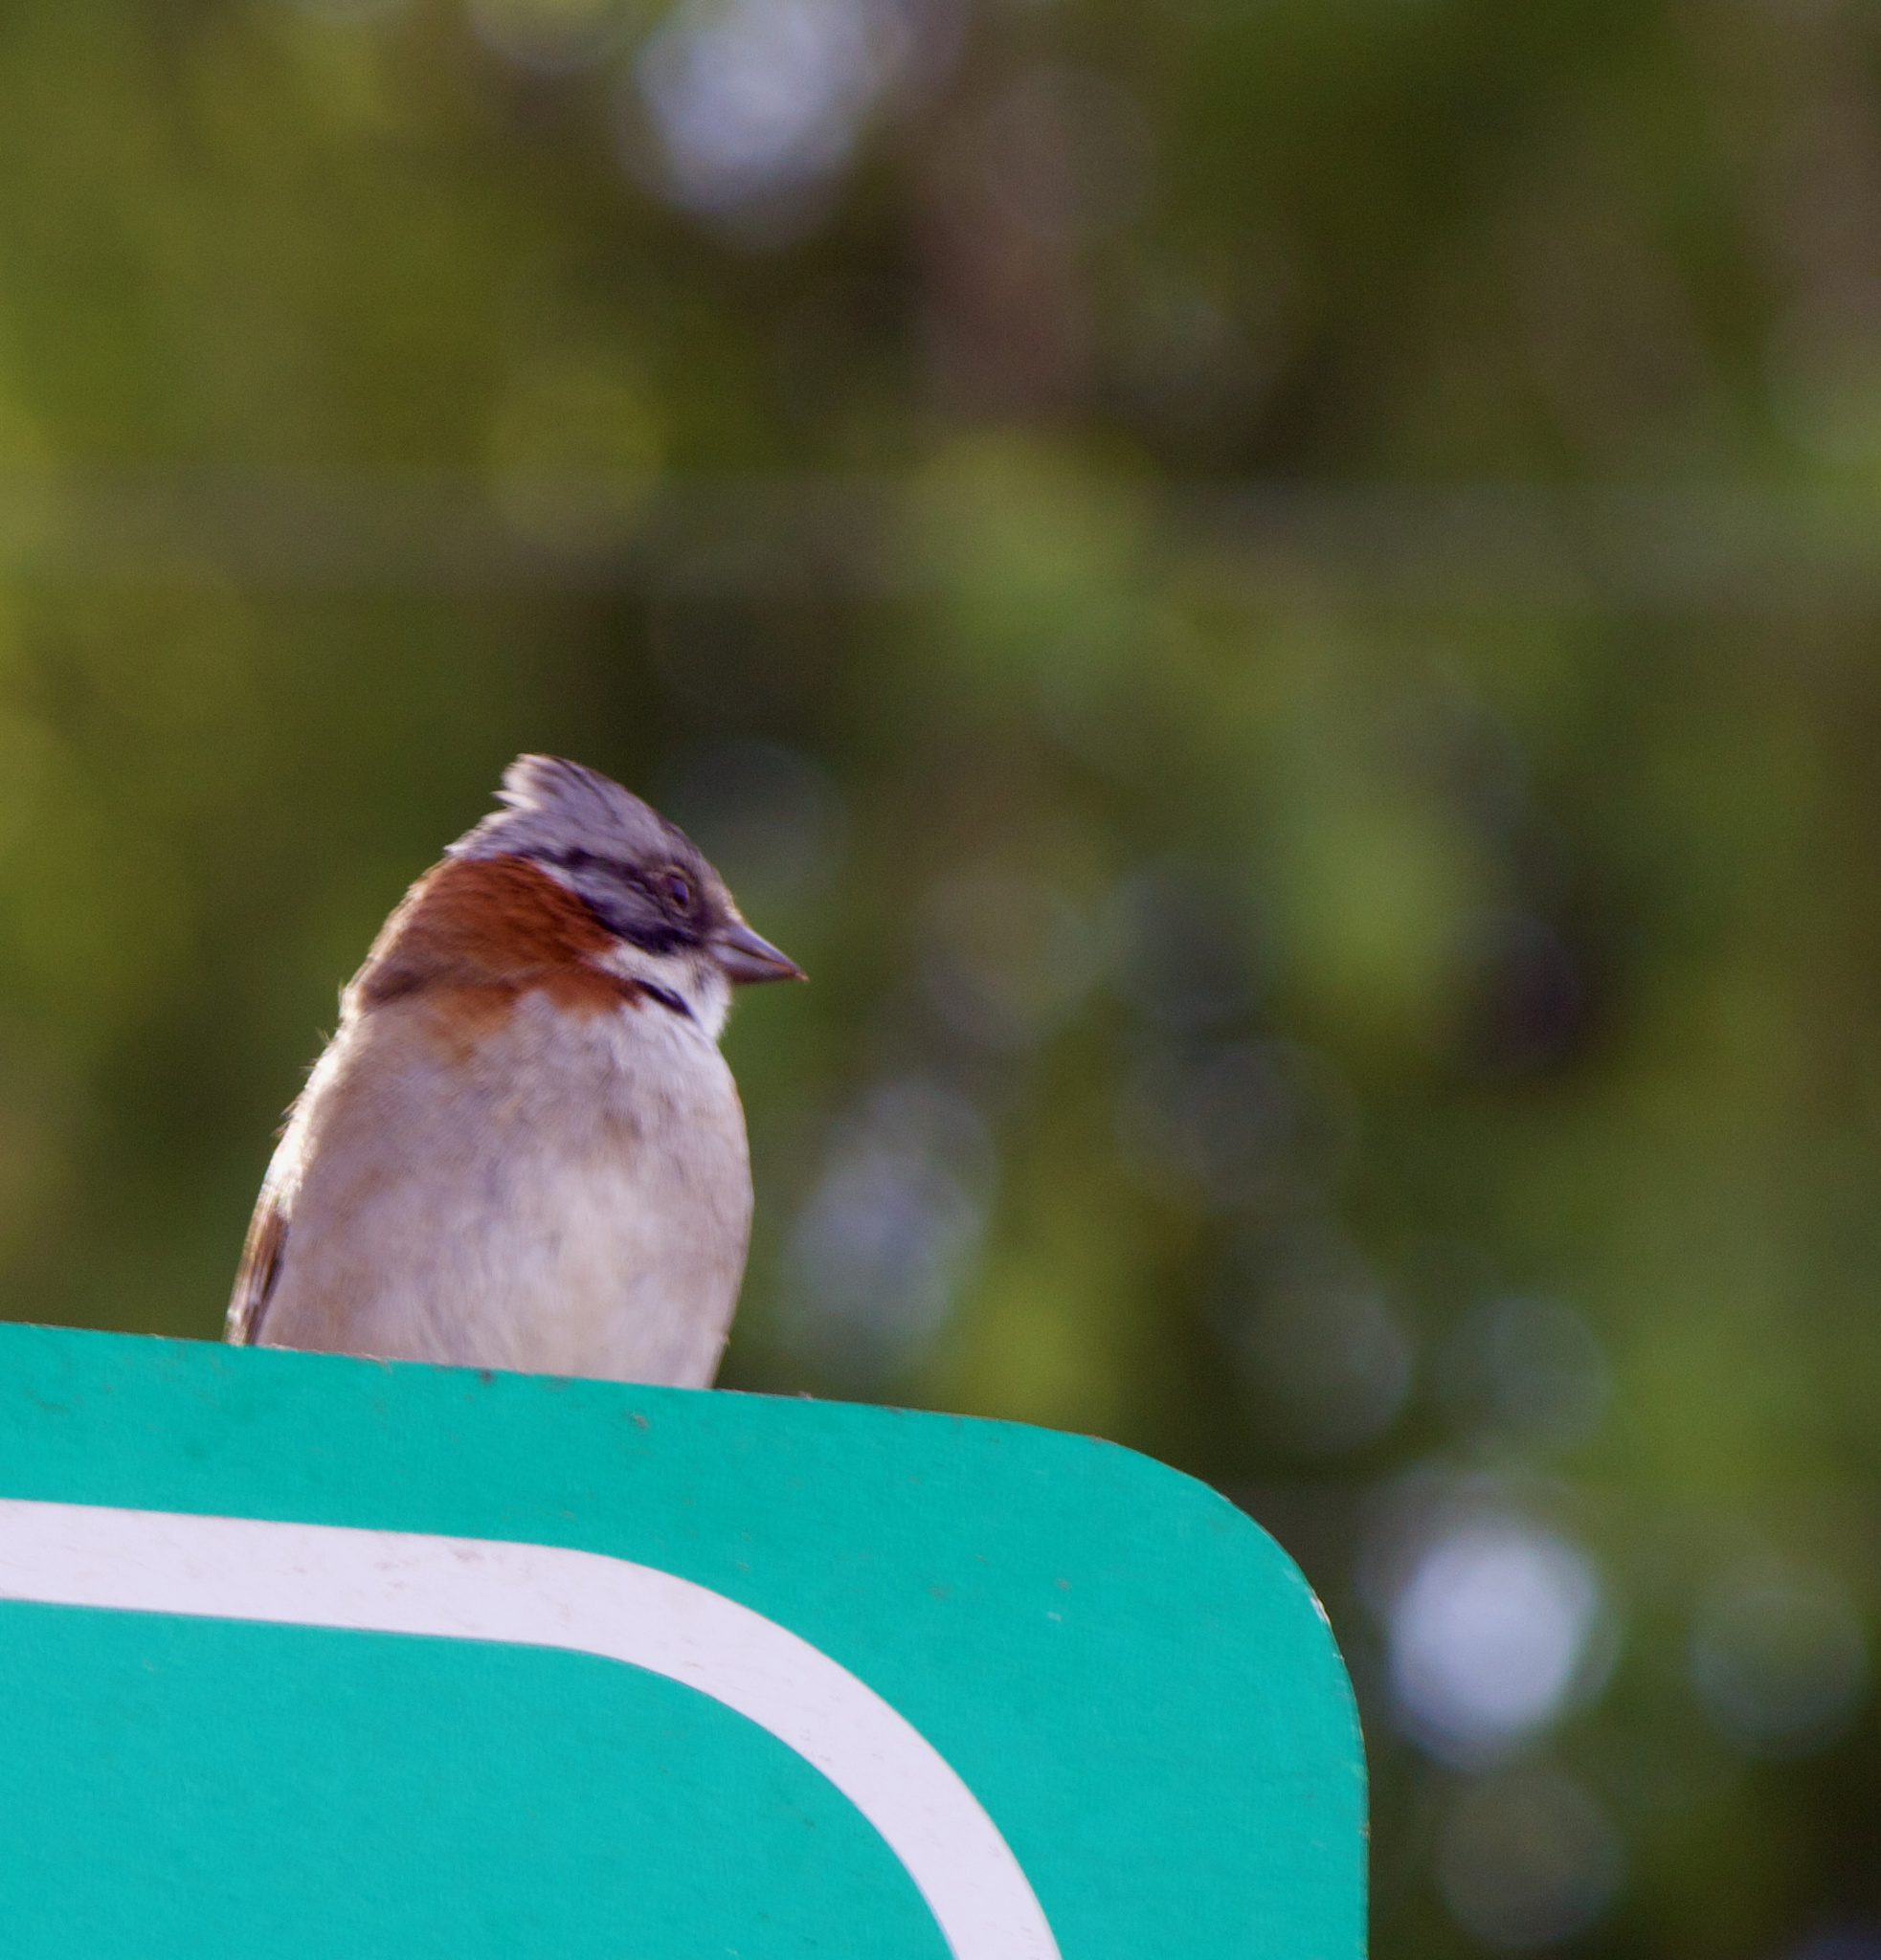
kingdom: Animalia
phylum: Chordata
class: Aves
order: Passeriformes
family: Passerellidae
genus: Zonotrichia
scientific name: Zonotrichia capensis
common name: Rufous-collared sparrow
